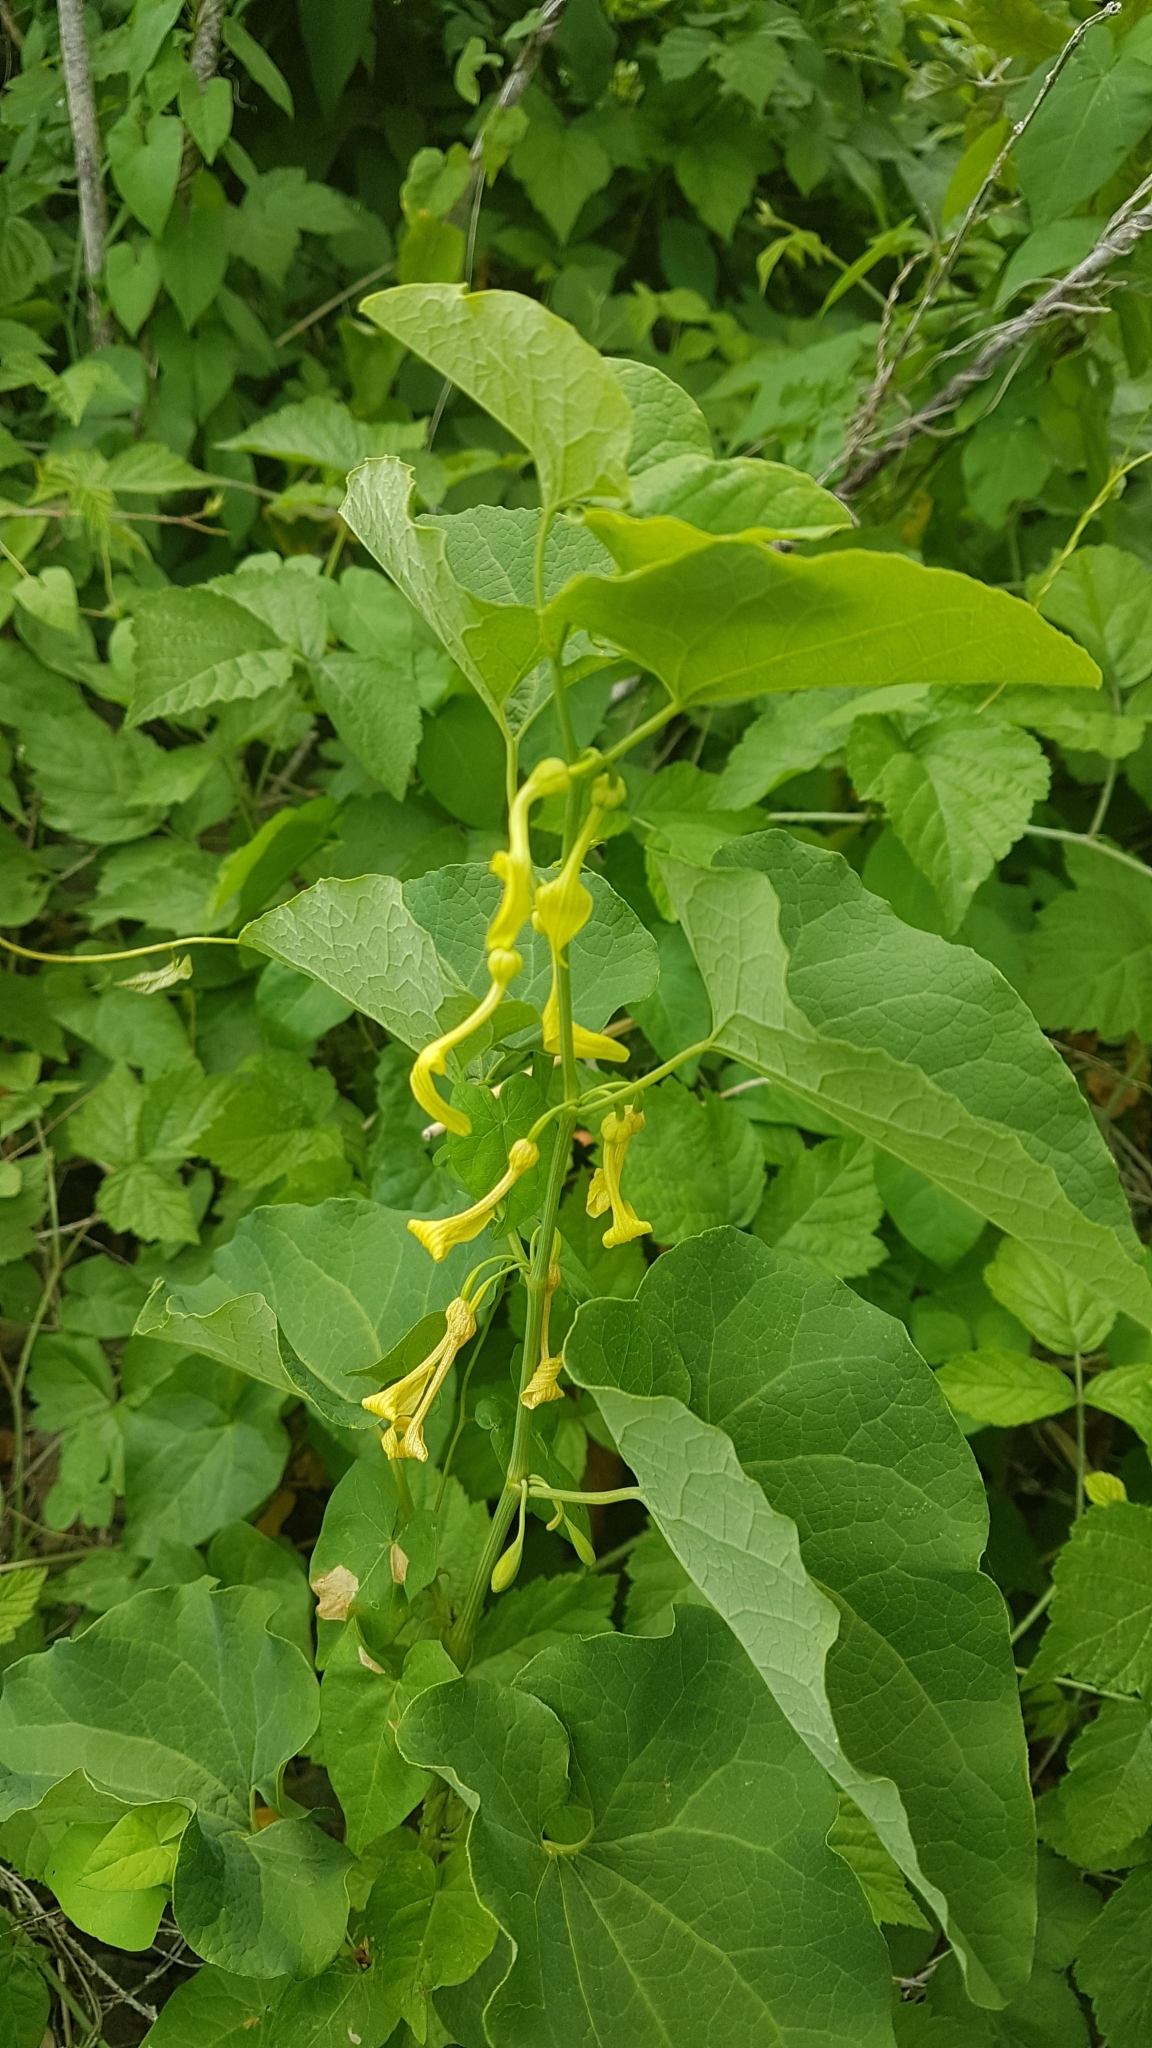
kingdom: Plantae
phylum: Tracheophyta
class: Magnoliopsida
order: Piperales
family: Aristolochiaceae
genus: Aristolochia
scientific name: Aristolochia clematitis
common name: Birthwort
